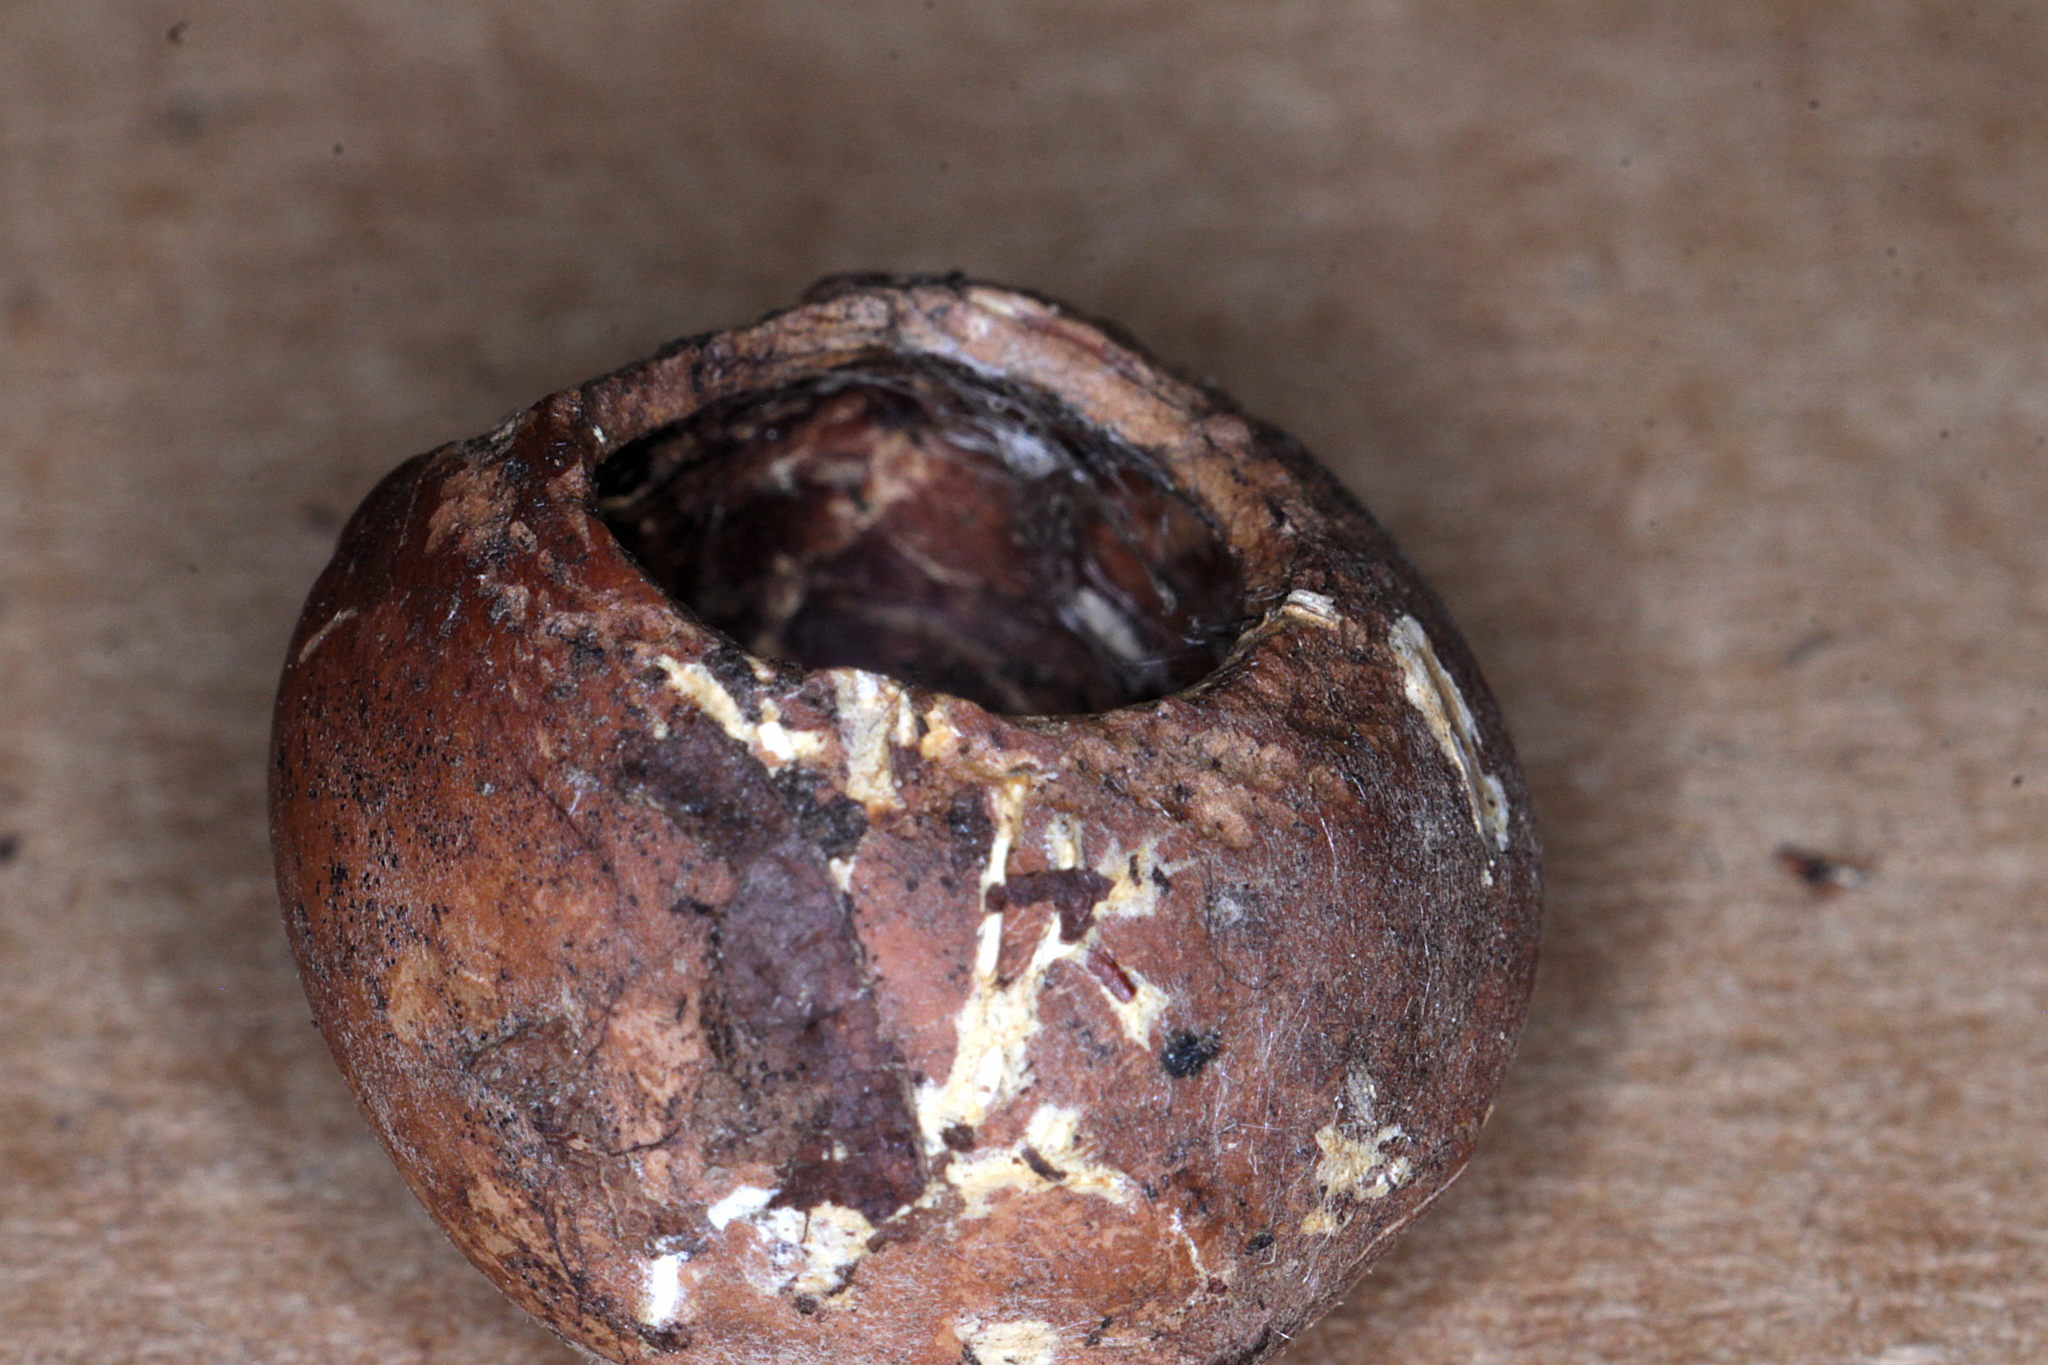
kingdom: Animalia
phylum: Chordata
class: Mammalia
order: Rodentia
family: Gliridae
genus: Muscardinus
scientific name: Muscardinus avellanarius
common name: Hazel dormouse
